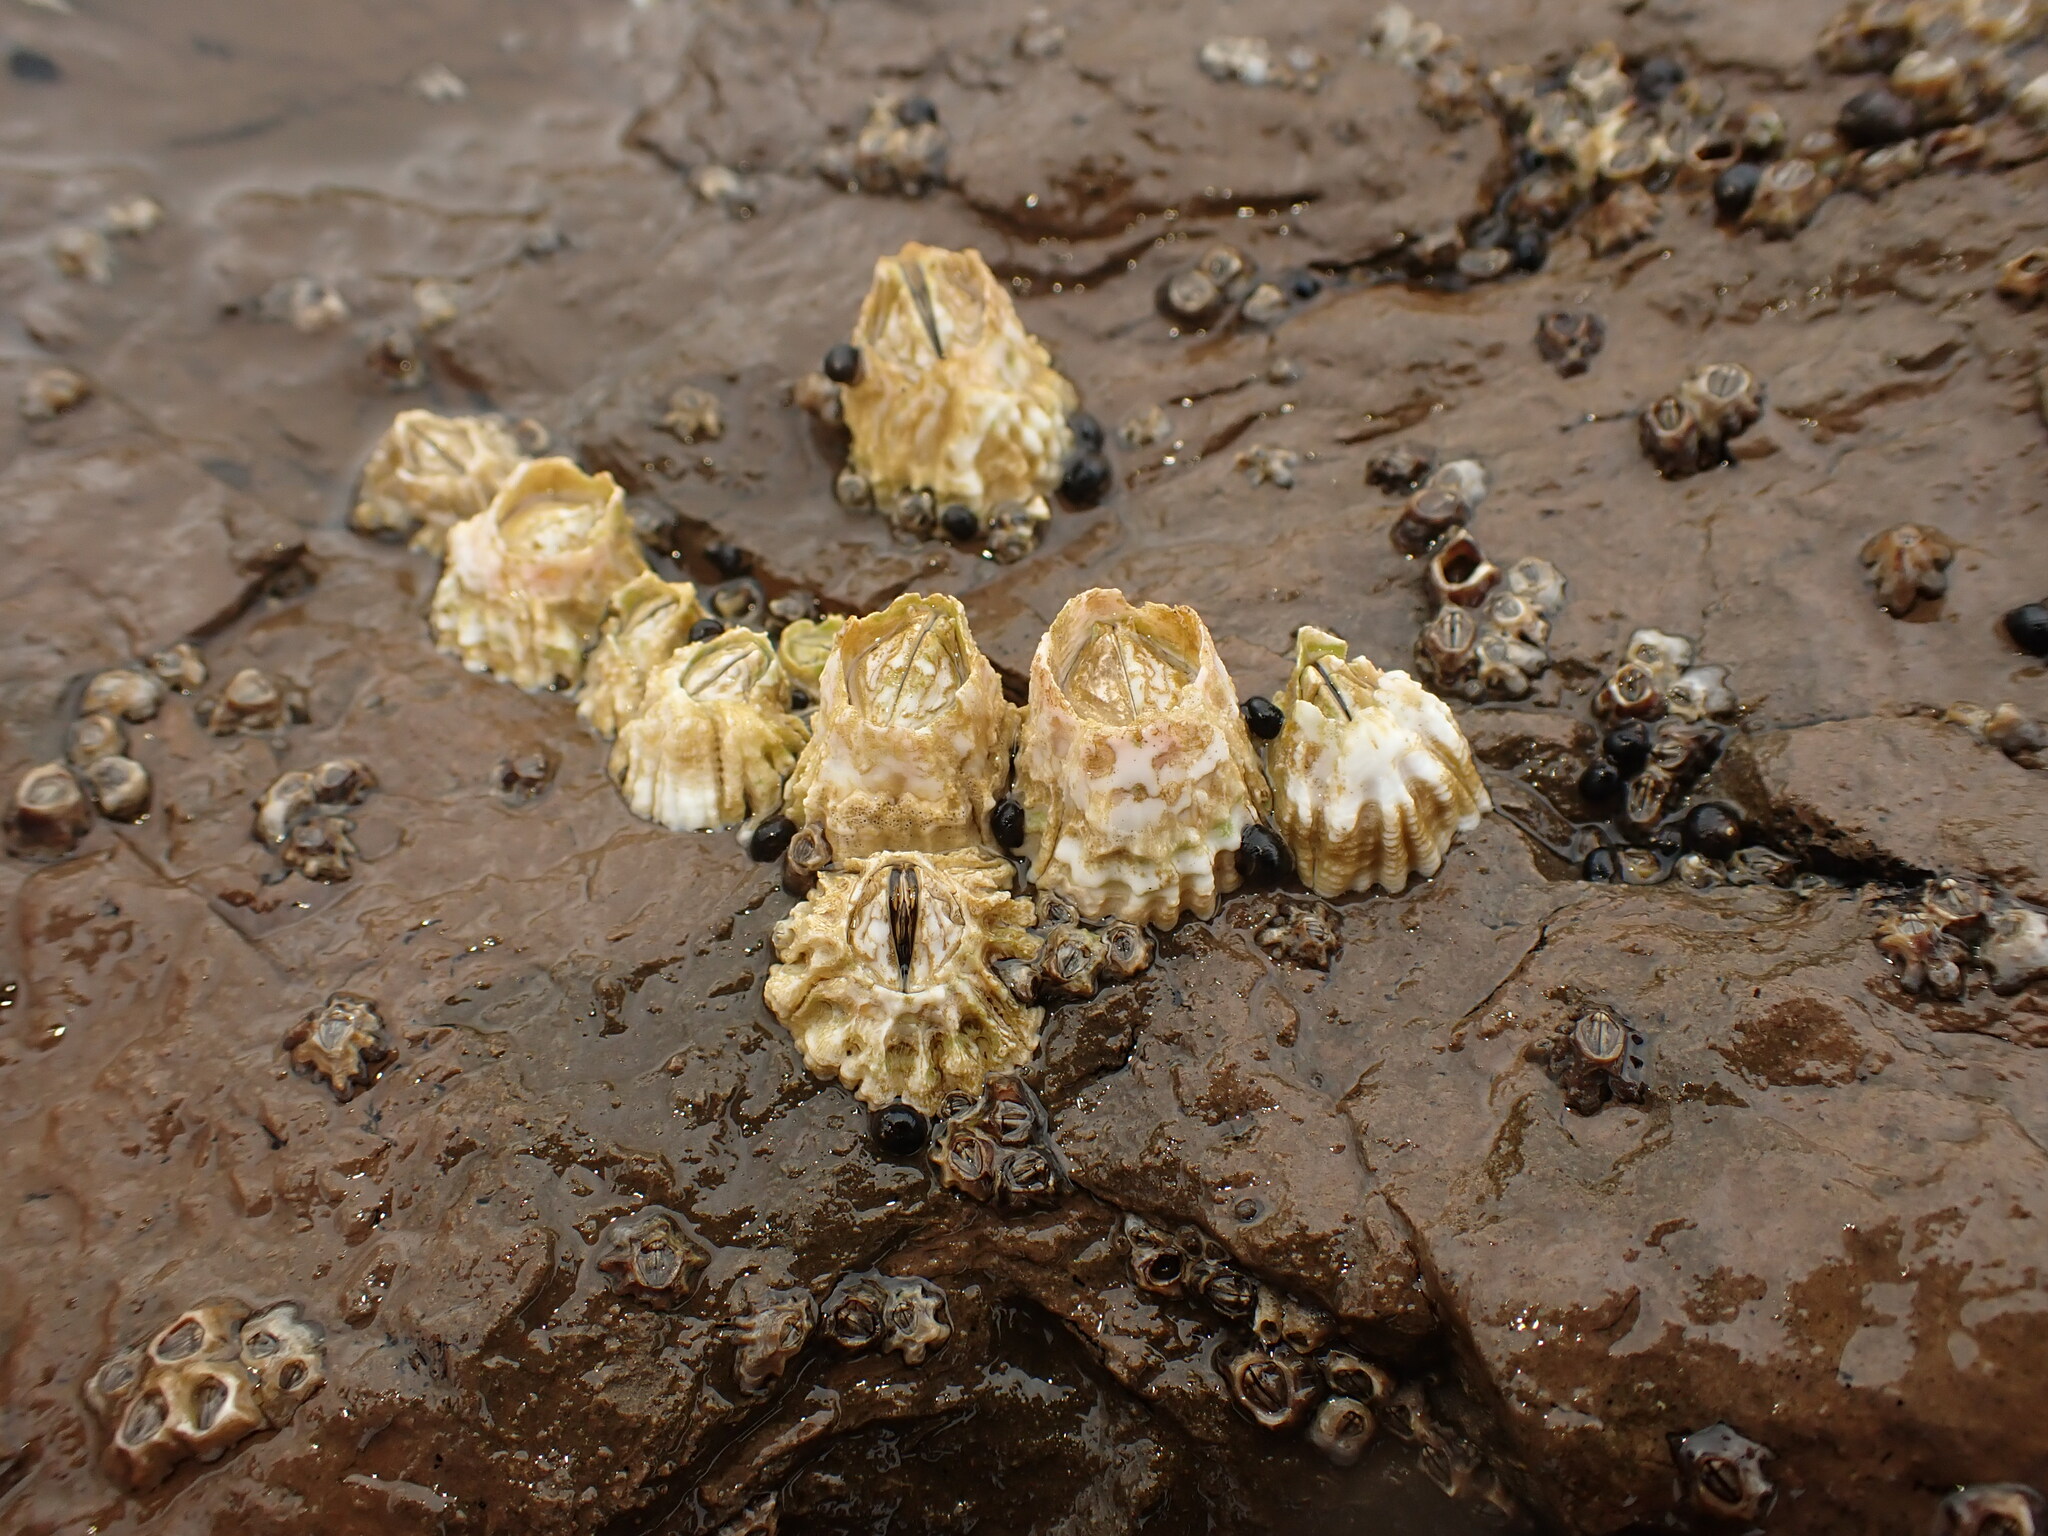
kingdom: Animalia
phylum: Arthropoda
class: Maxillopoda
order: Sessilia
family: Tetraclitidae
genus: Epopella
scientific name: Epopella plicata
